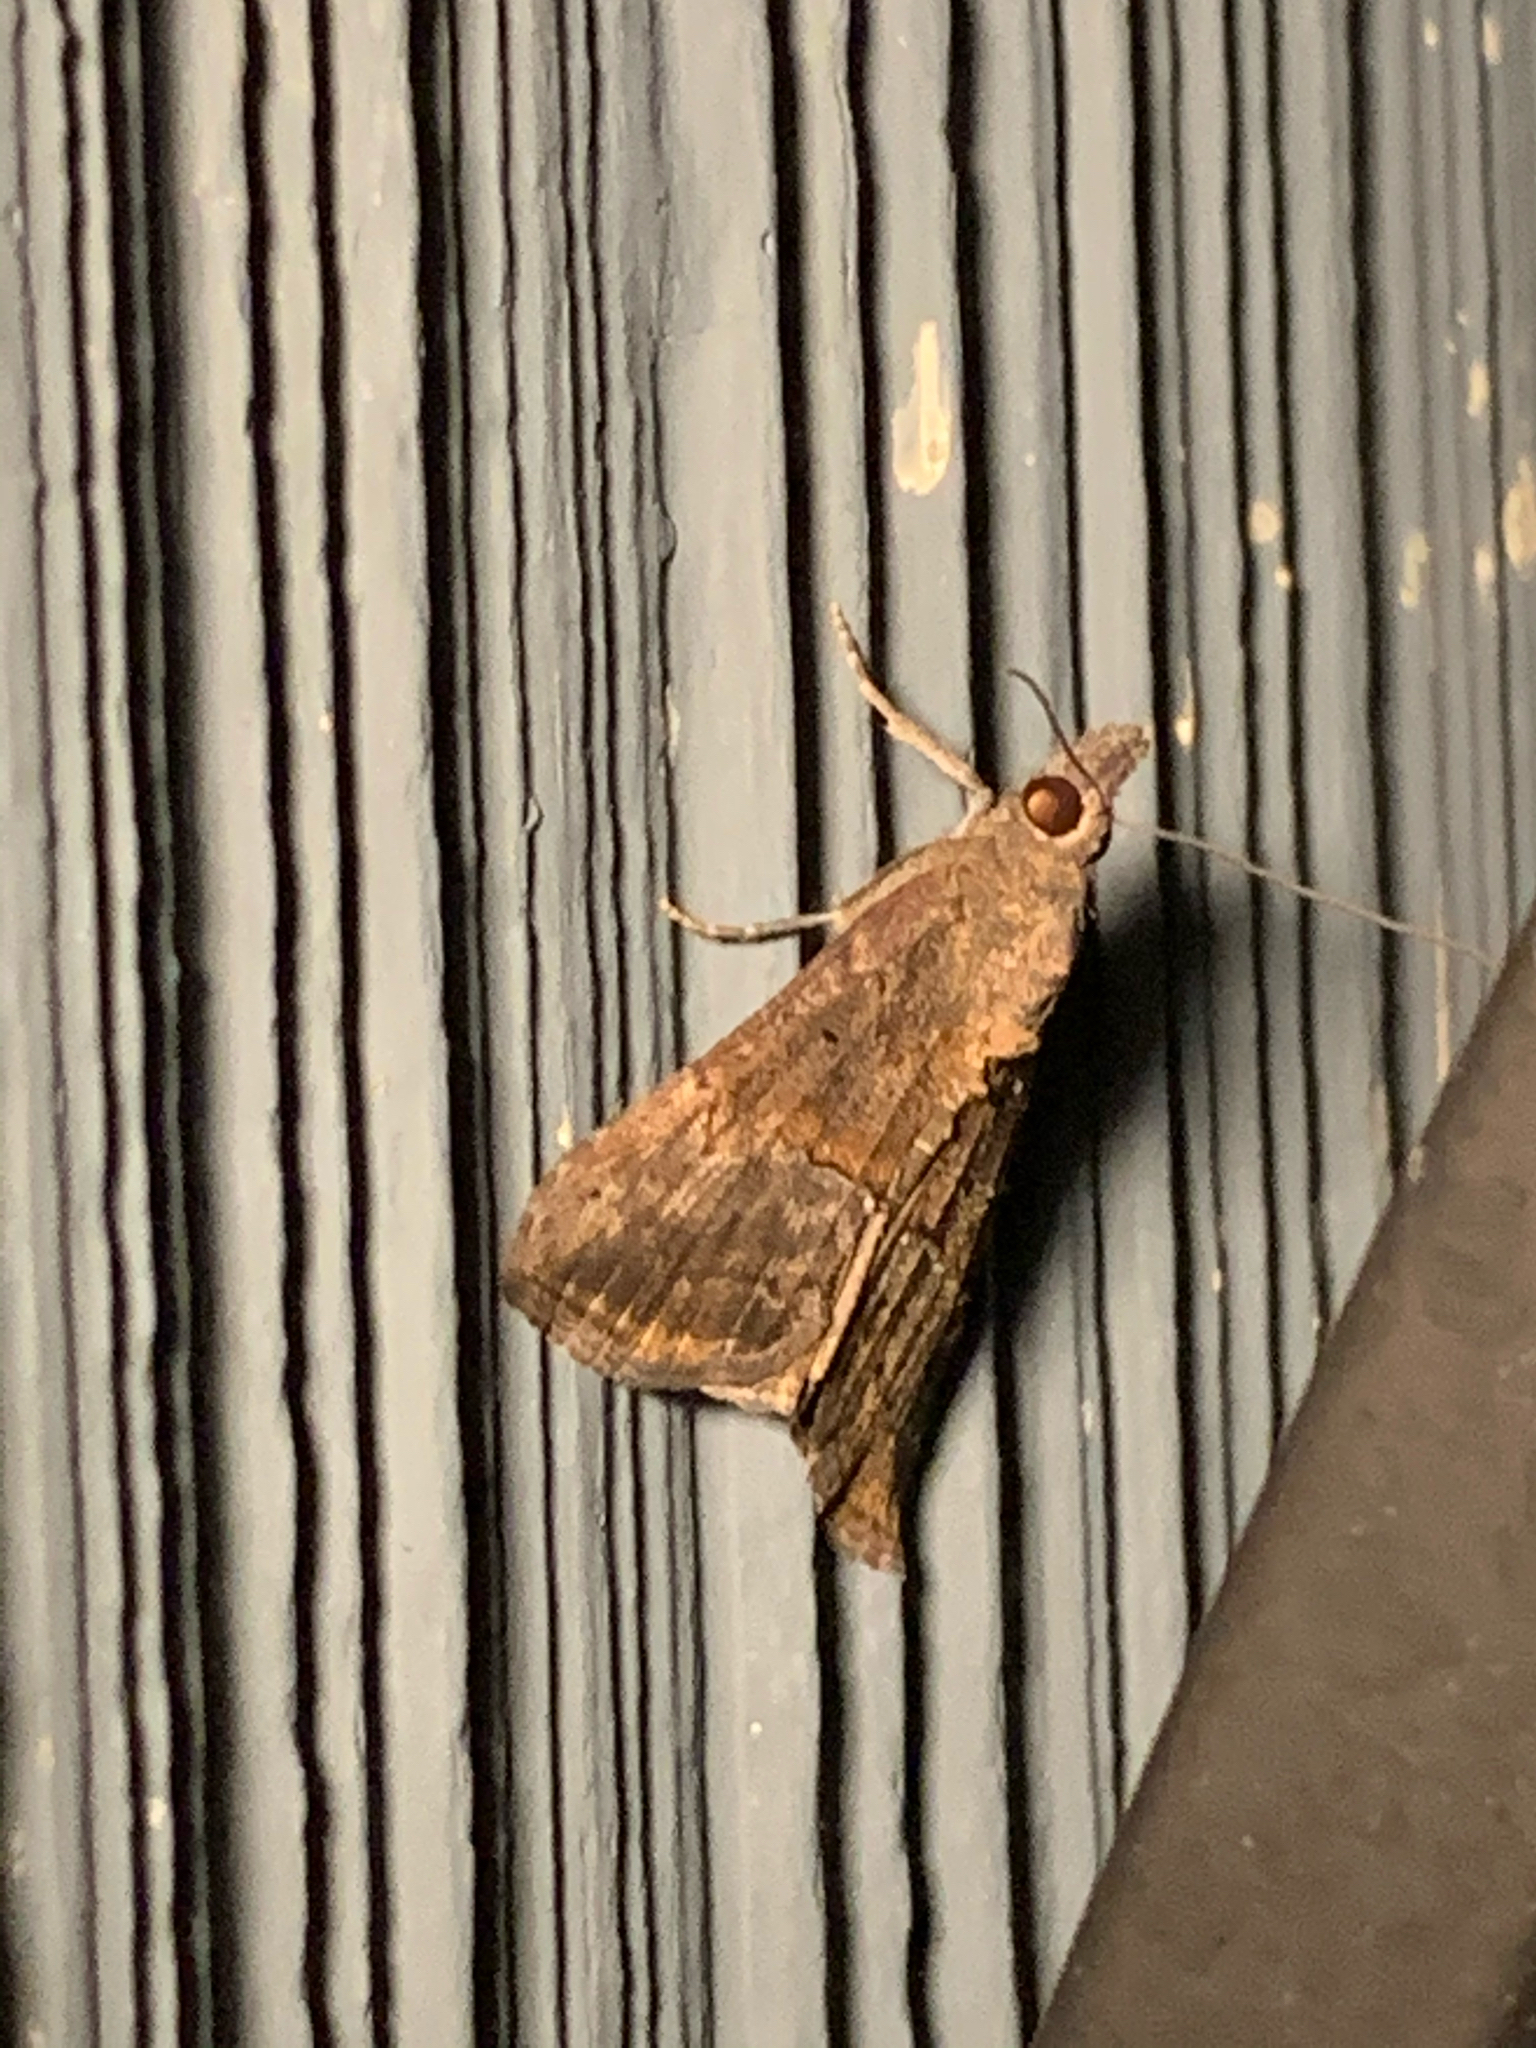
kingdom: Animalia
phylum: Arthropoda
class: Insecta
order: Lepidoptera
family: Erebidae
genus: Hypena
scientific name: Hypena scabra
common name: Green cloverworm
